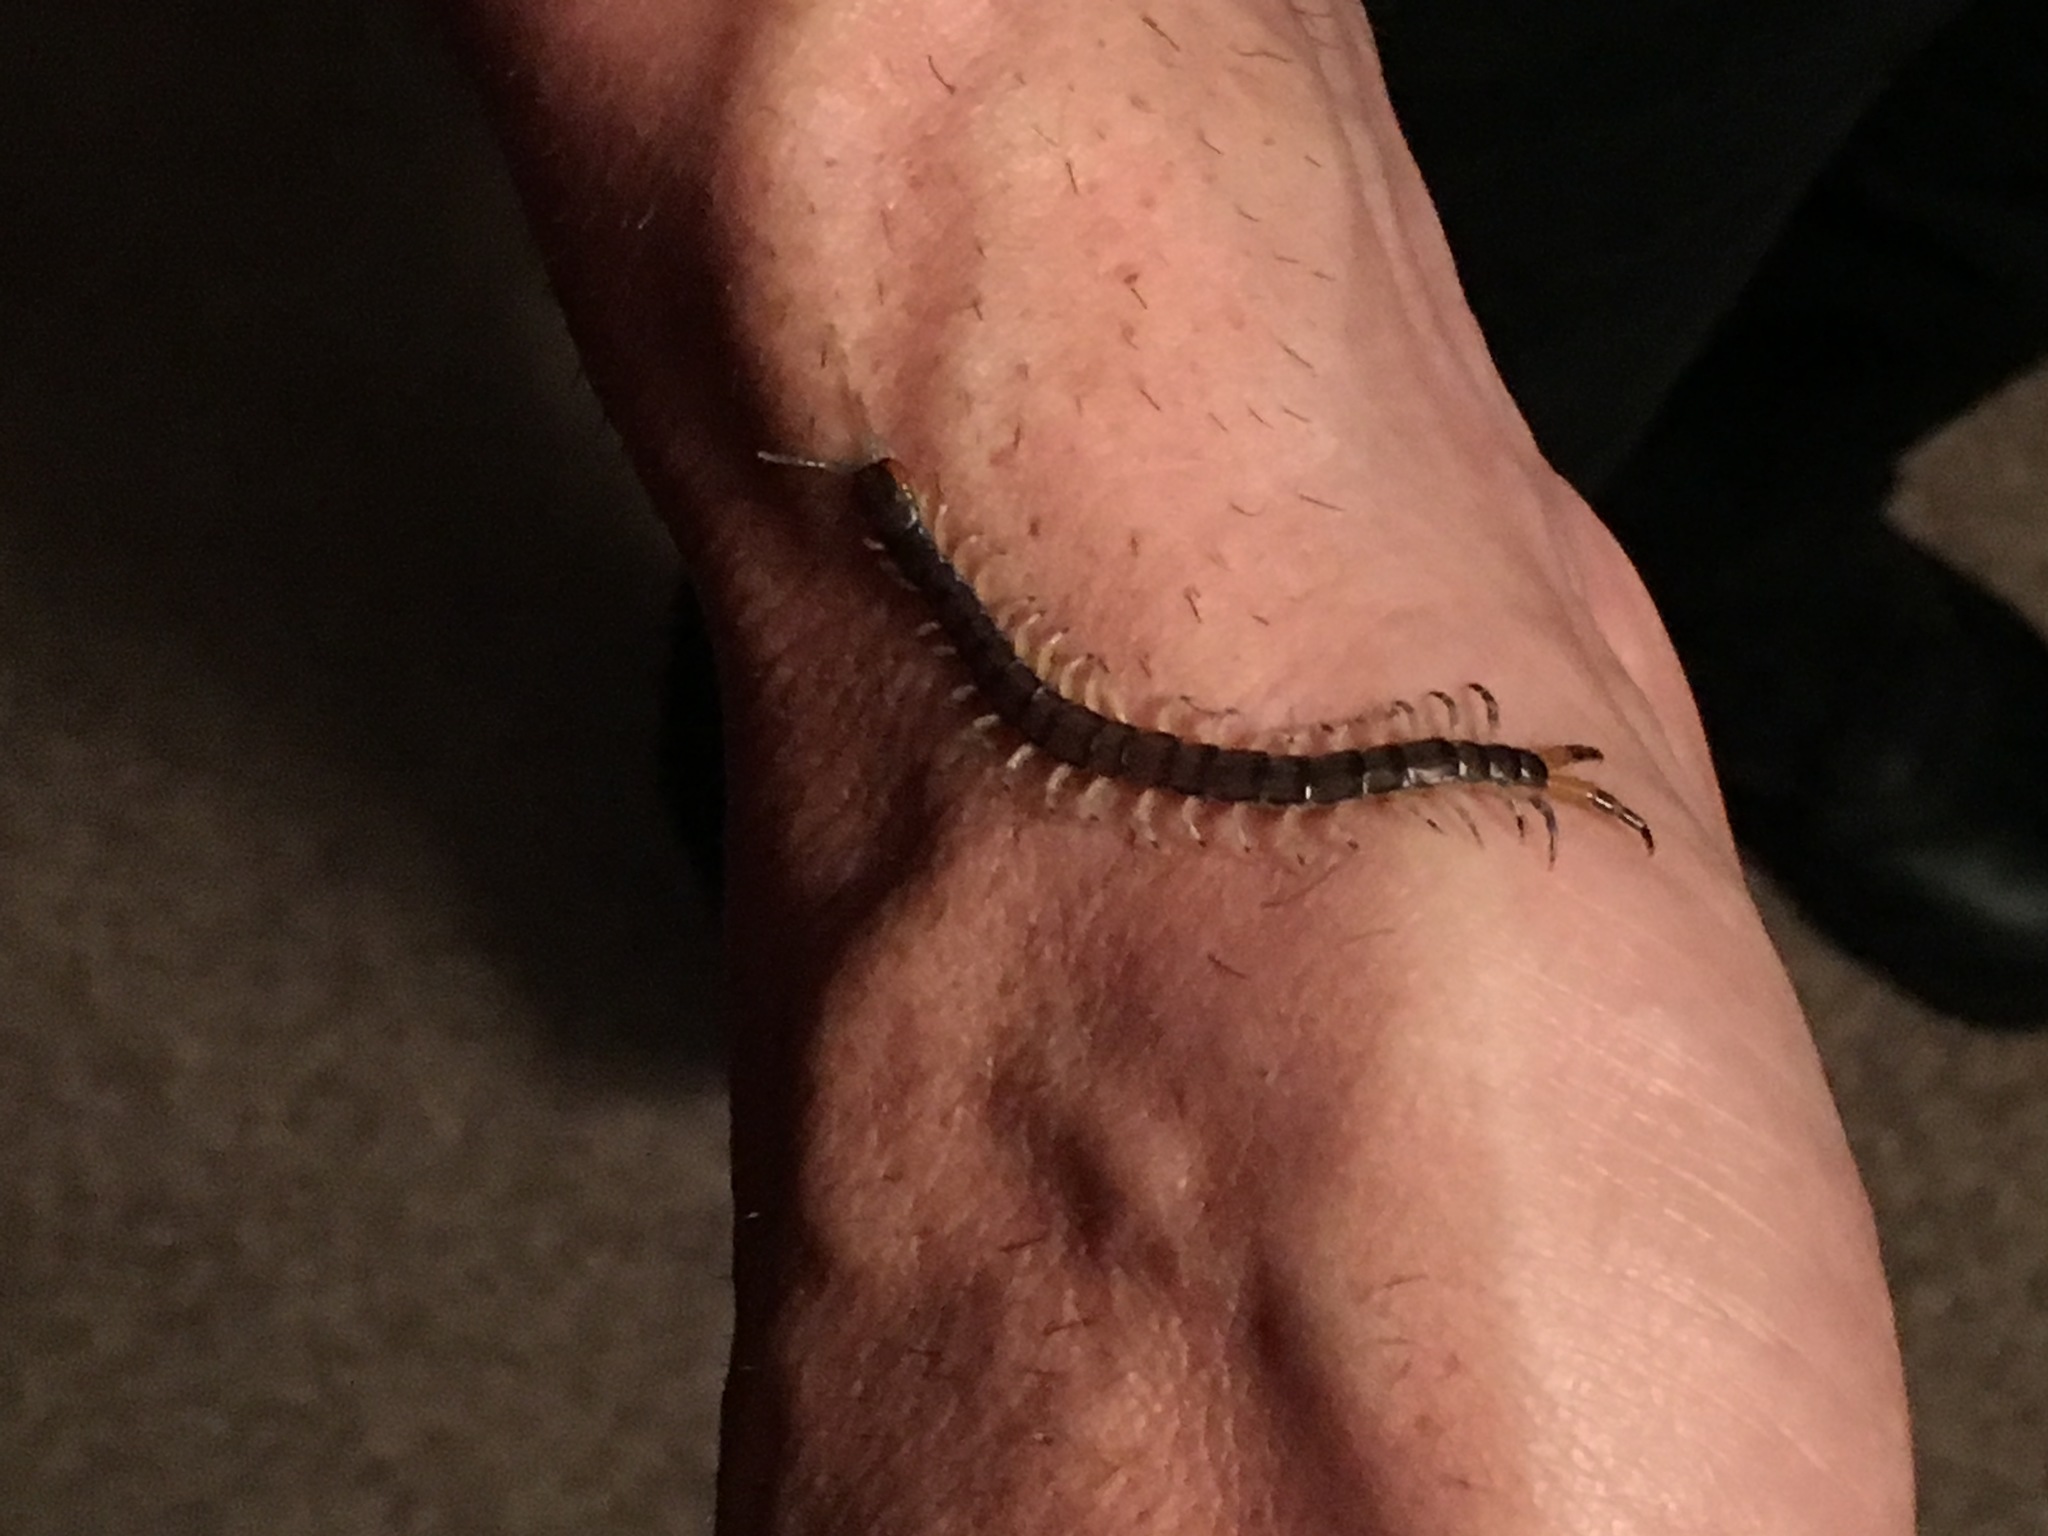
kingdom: Animalia
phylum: Arthropoda
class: Chilopoda
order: Scolopendromorpha
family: Scolopendridae
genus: Hemiscolopendra
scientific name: Hemiscolopendra marginata
